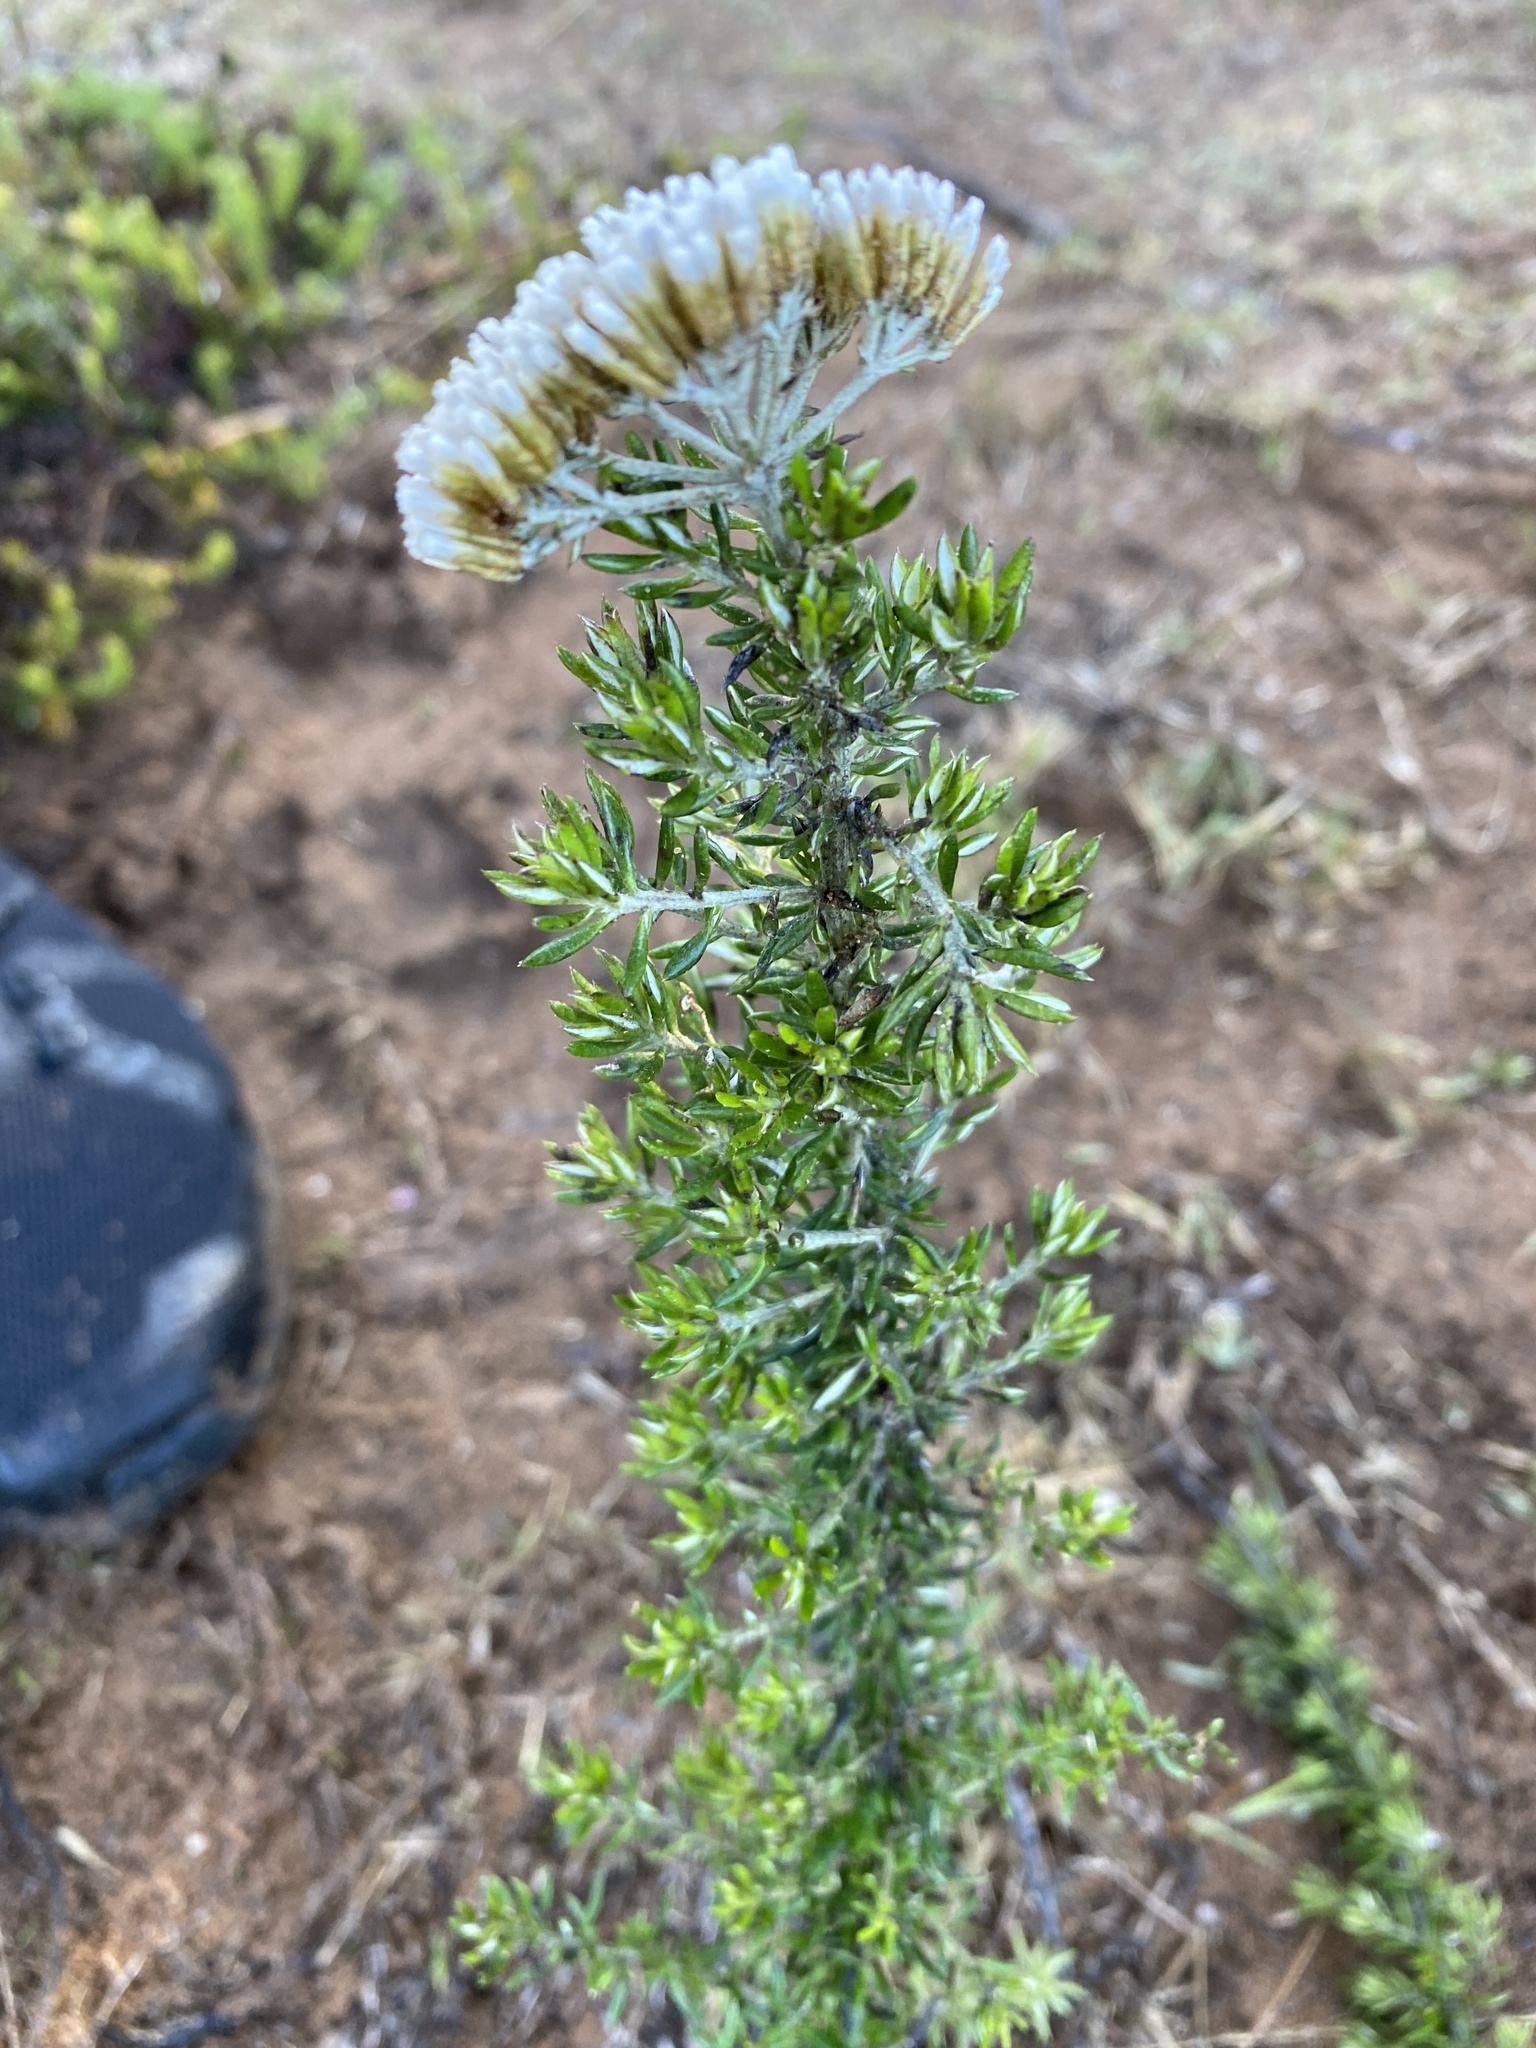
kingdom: Plantae
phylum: Tracheophyta
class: Magnoliopsida
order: Asterales
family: Asteraceae
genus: Metalasia
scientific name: Metalasia densa
